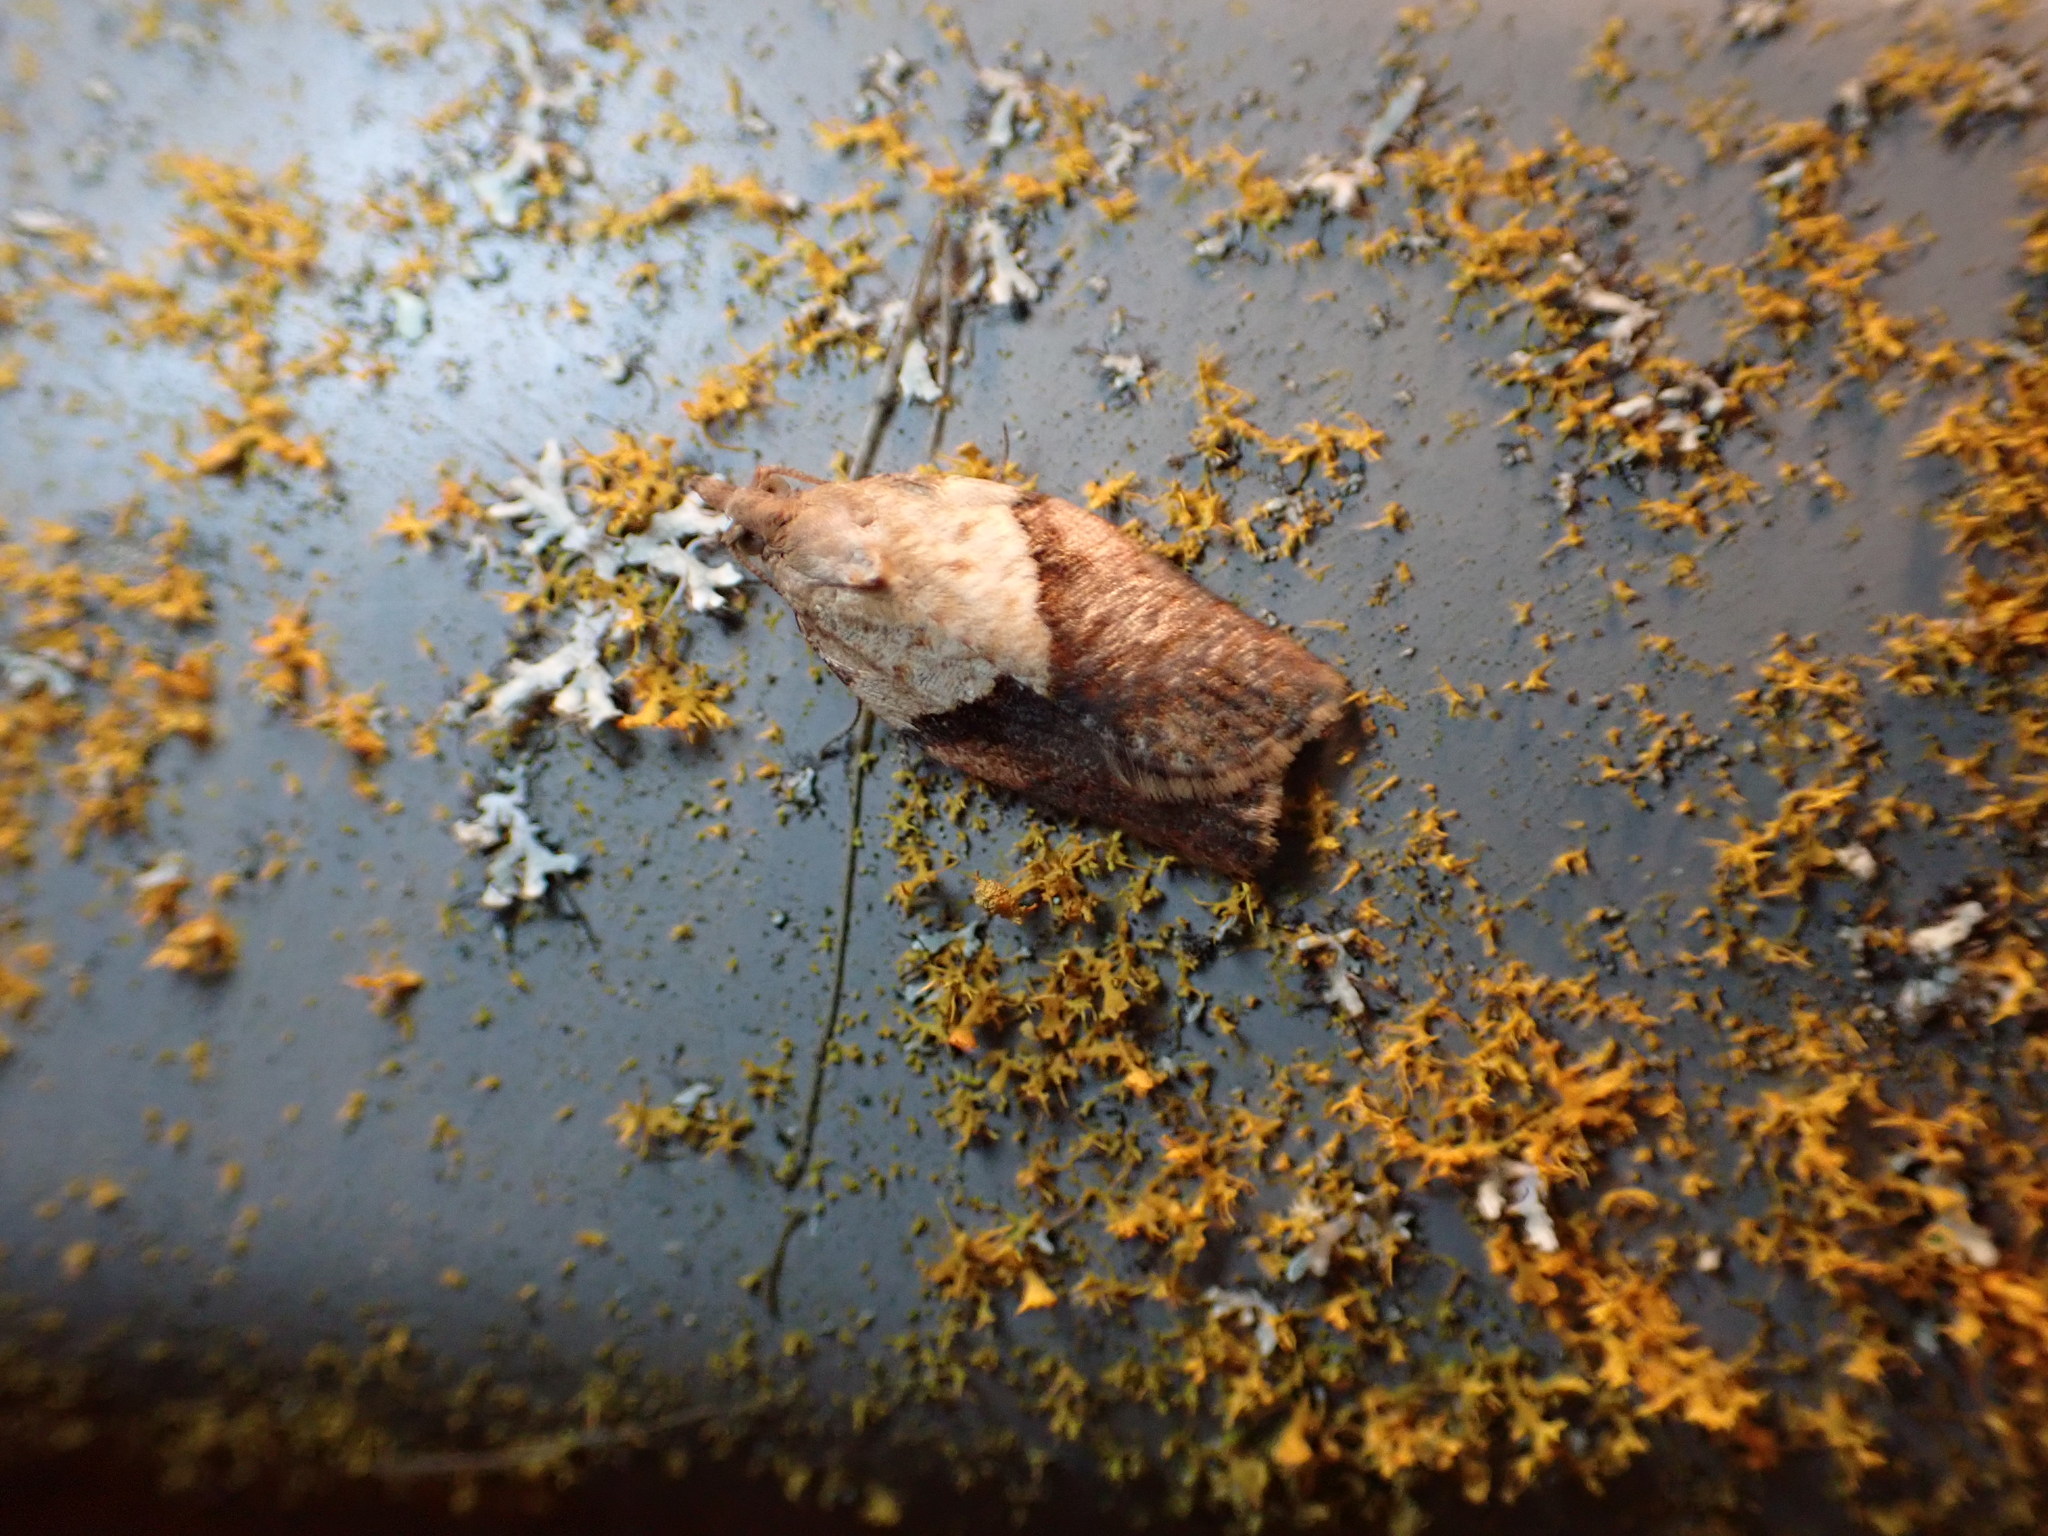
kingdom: Animalia
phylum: Arthropoda
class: Insecta
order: Lepidoptera
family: Tortricidae
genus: Epiphyas
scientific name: Epiphyas postvittana
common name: Light brown apple moth
